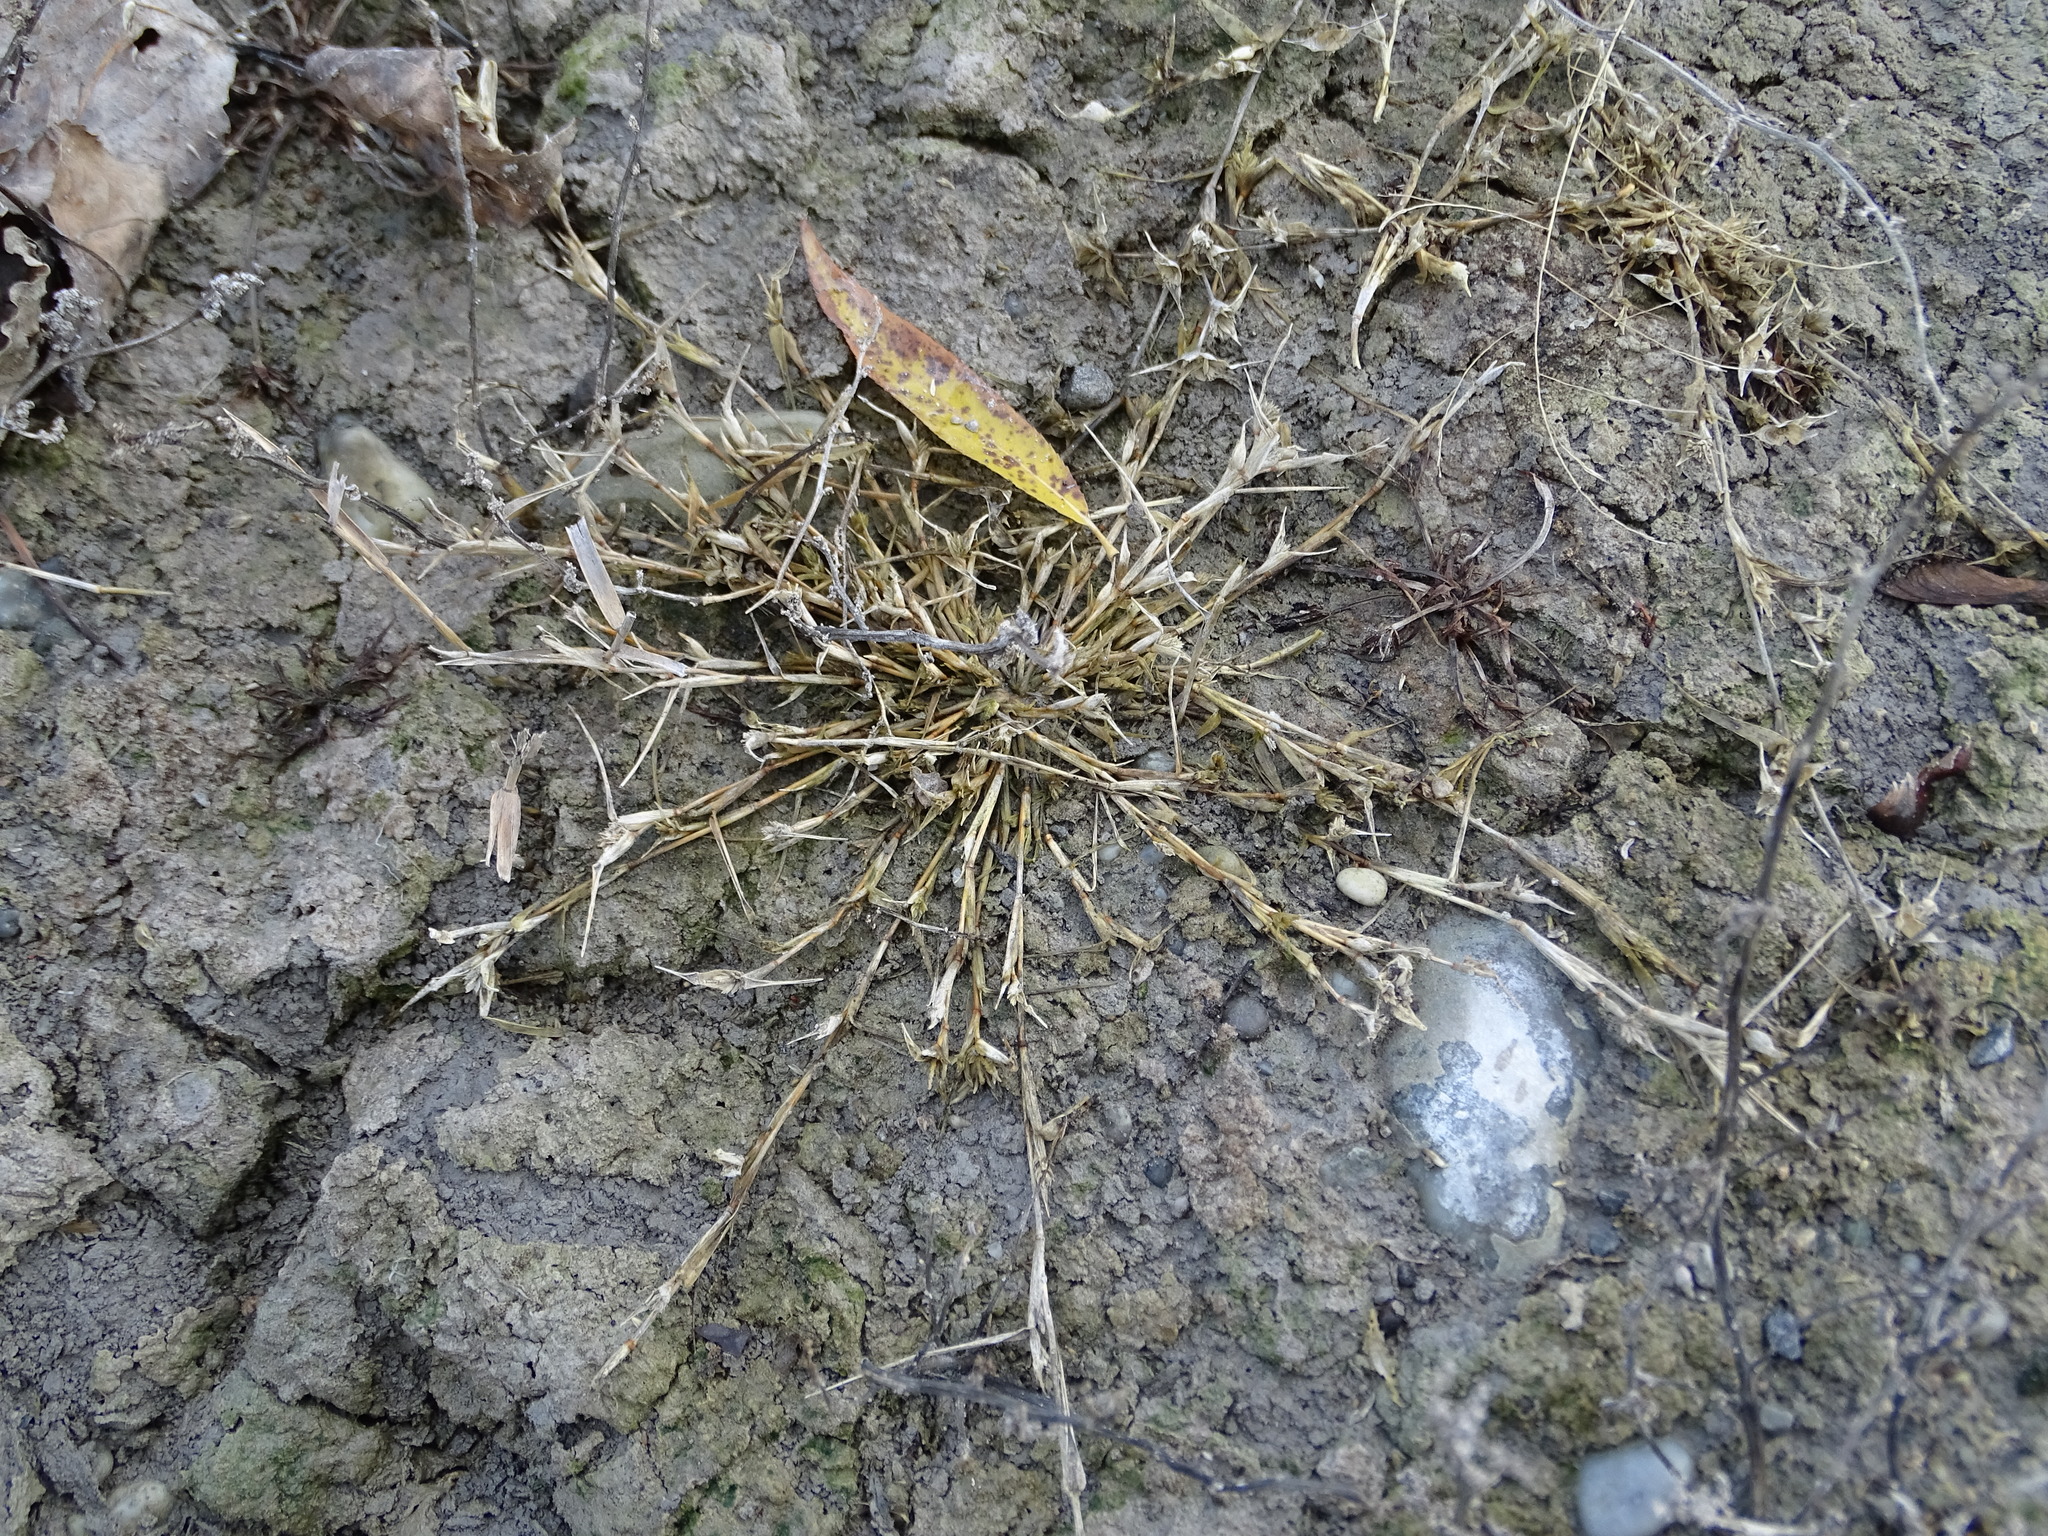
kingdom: Plantae
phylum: Tracheophyta
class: Liliopsida
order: Poales
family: Poaceae
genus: Sporobolus
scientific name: Sporobolus aculeatus
